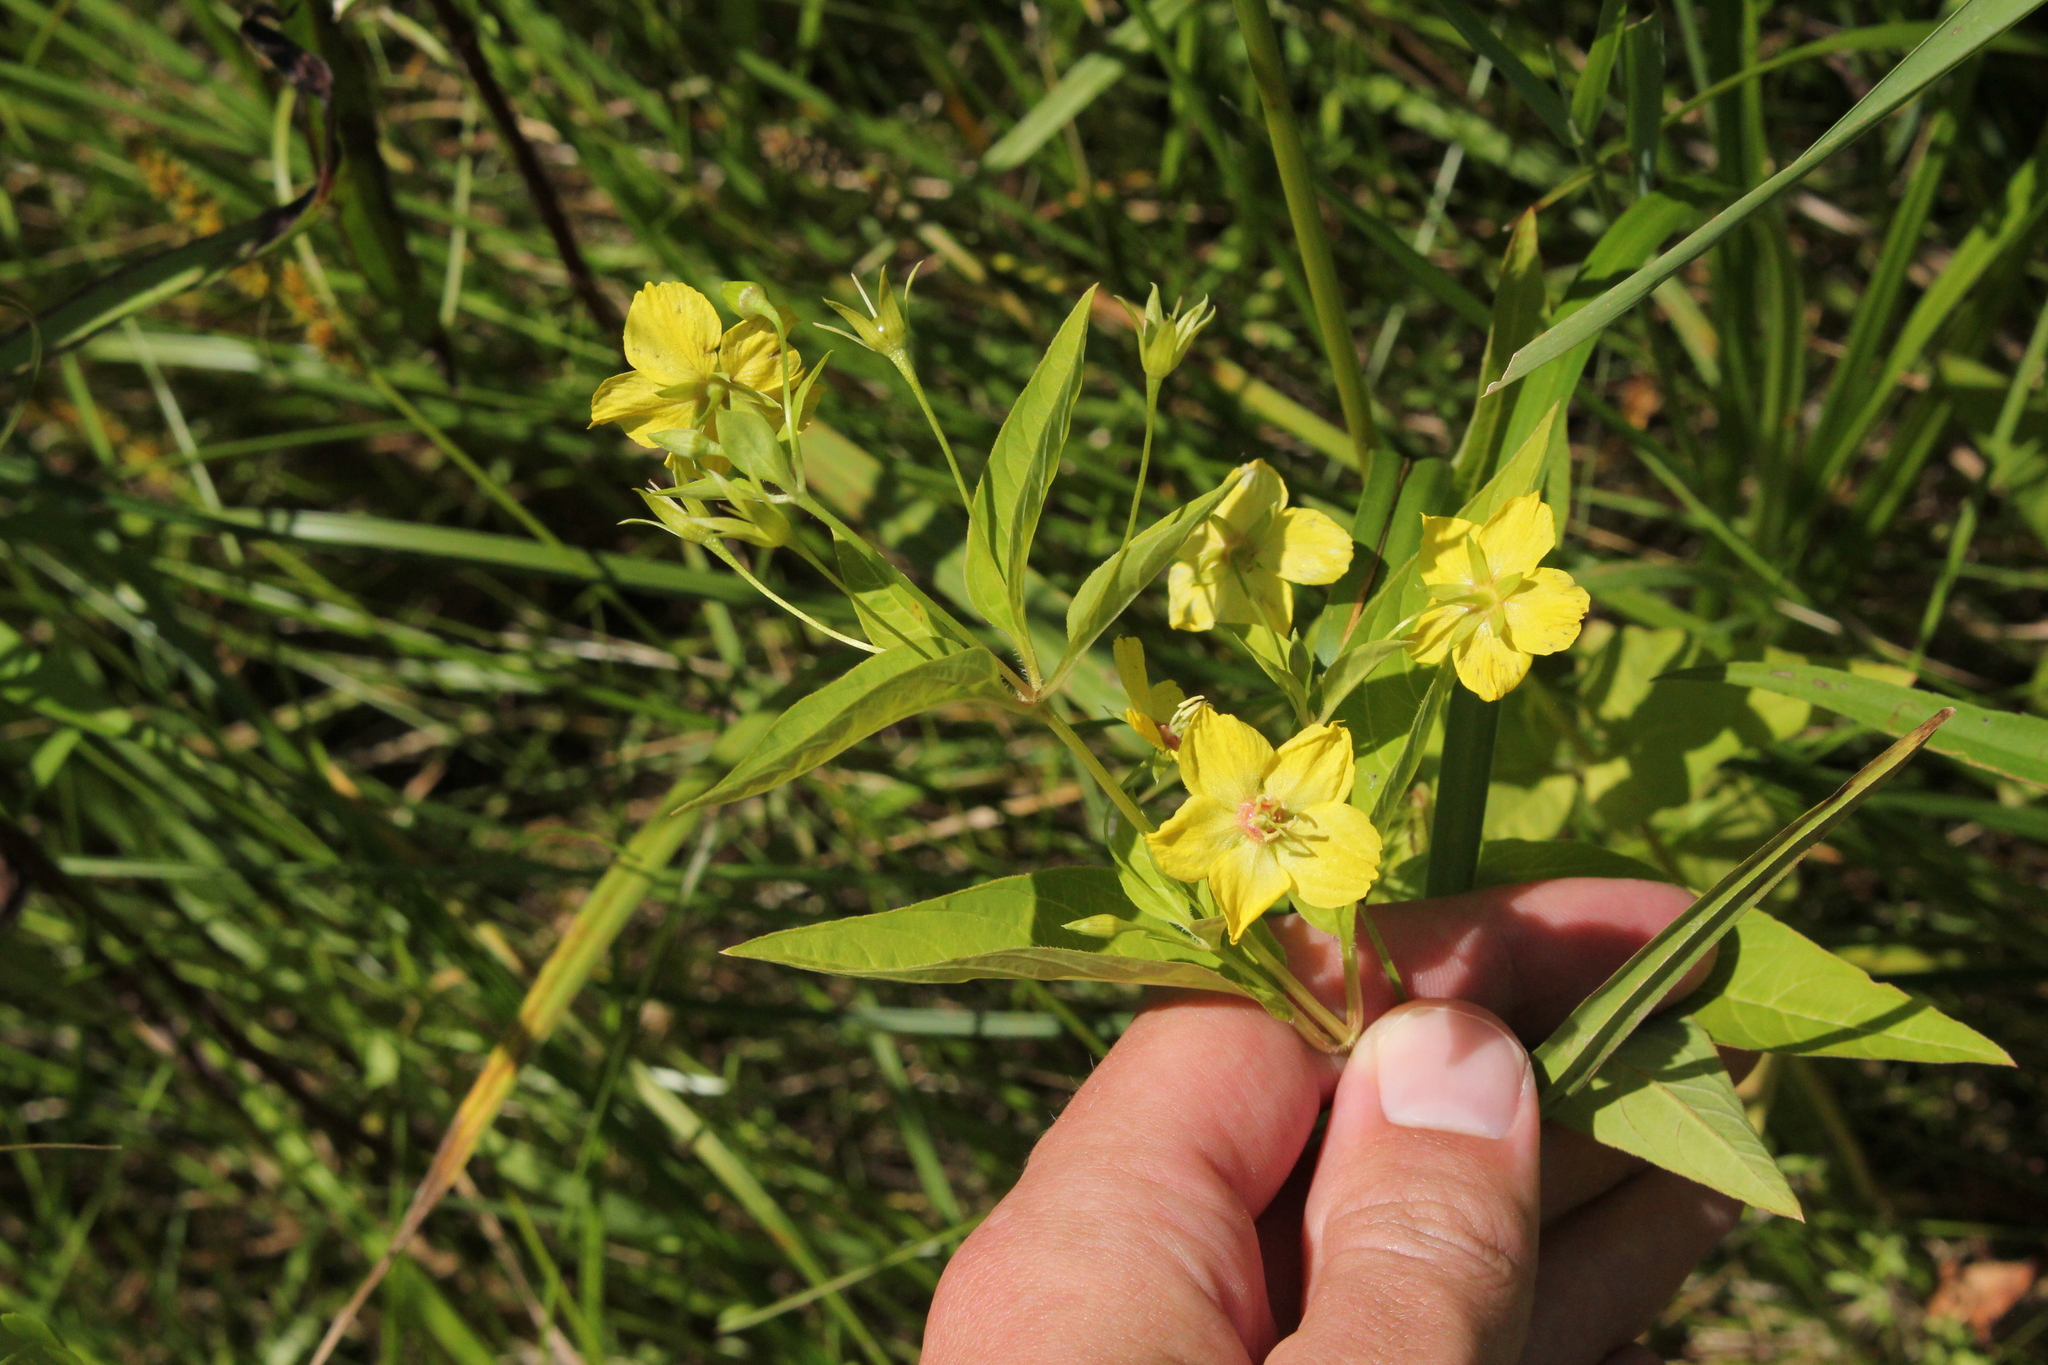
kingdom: Plantae
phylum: Tracheophyta
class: Magnoliopsida
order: Ericales
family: Primulaceae
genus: Lysimachia
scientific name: Lysimachia ciliata
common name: Fringed loosestrife
